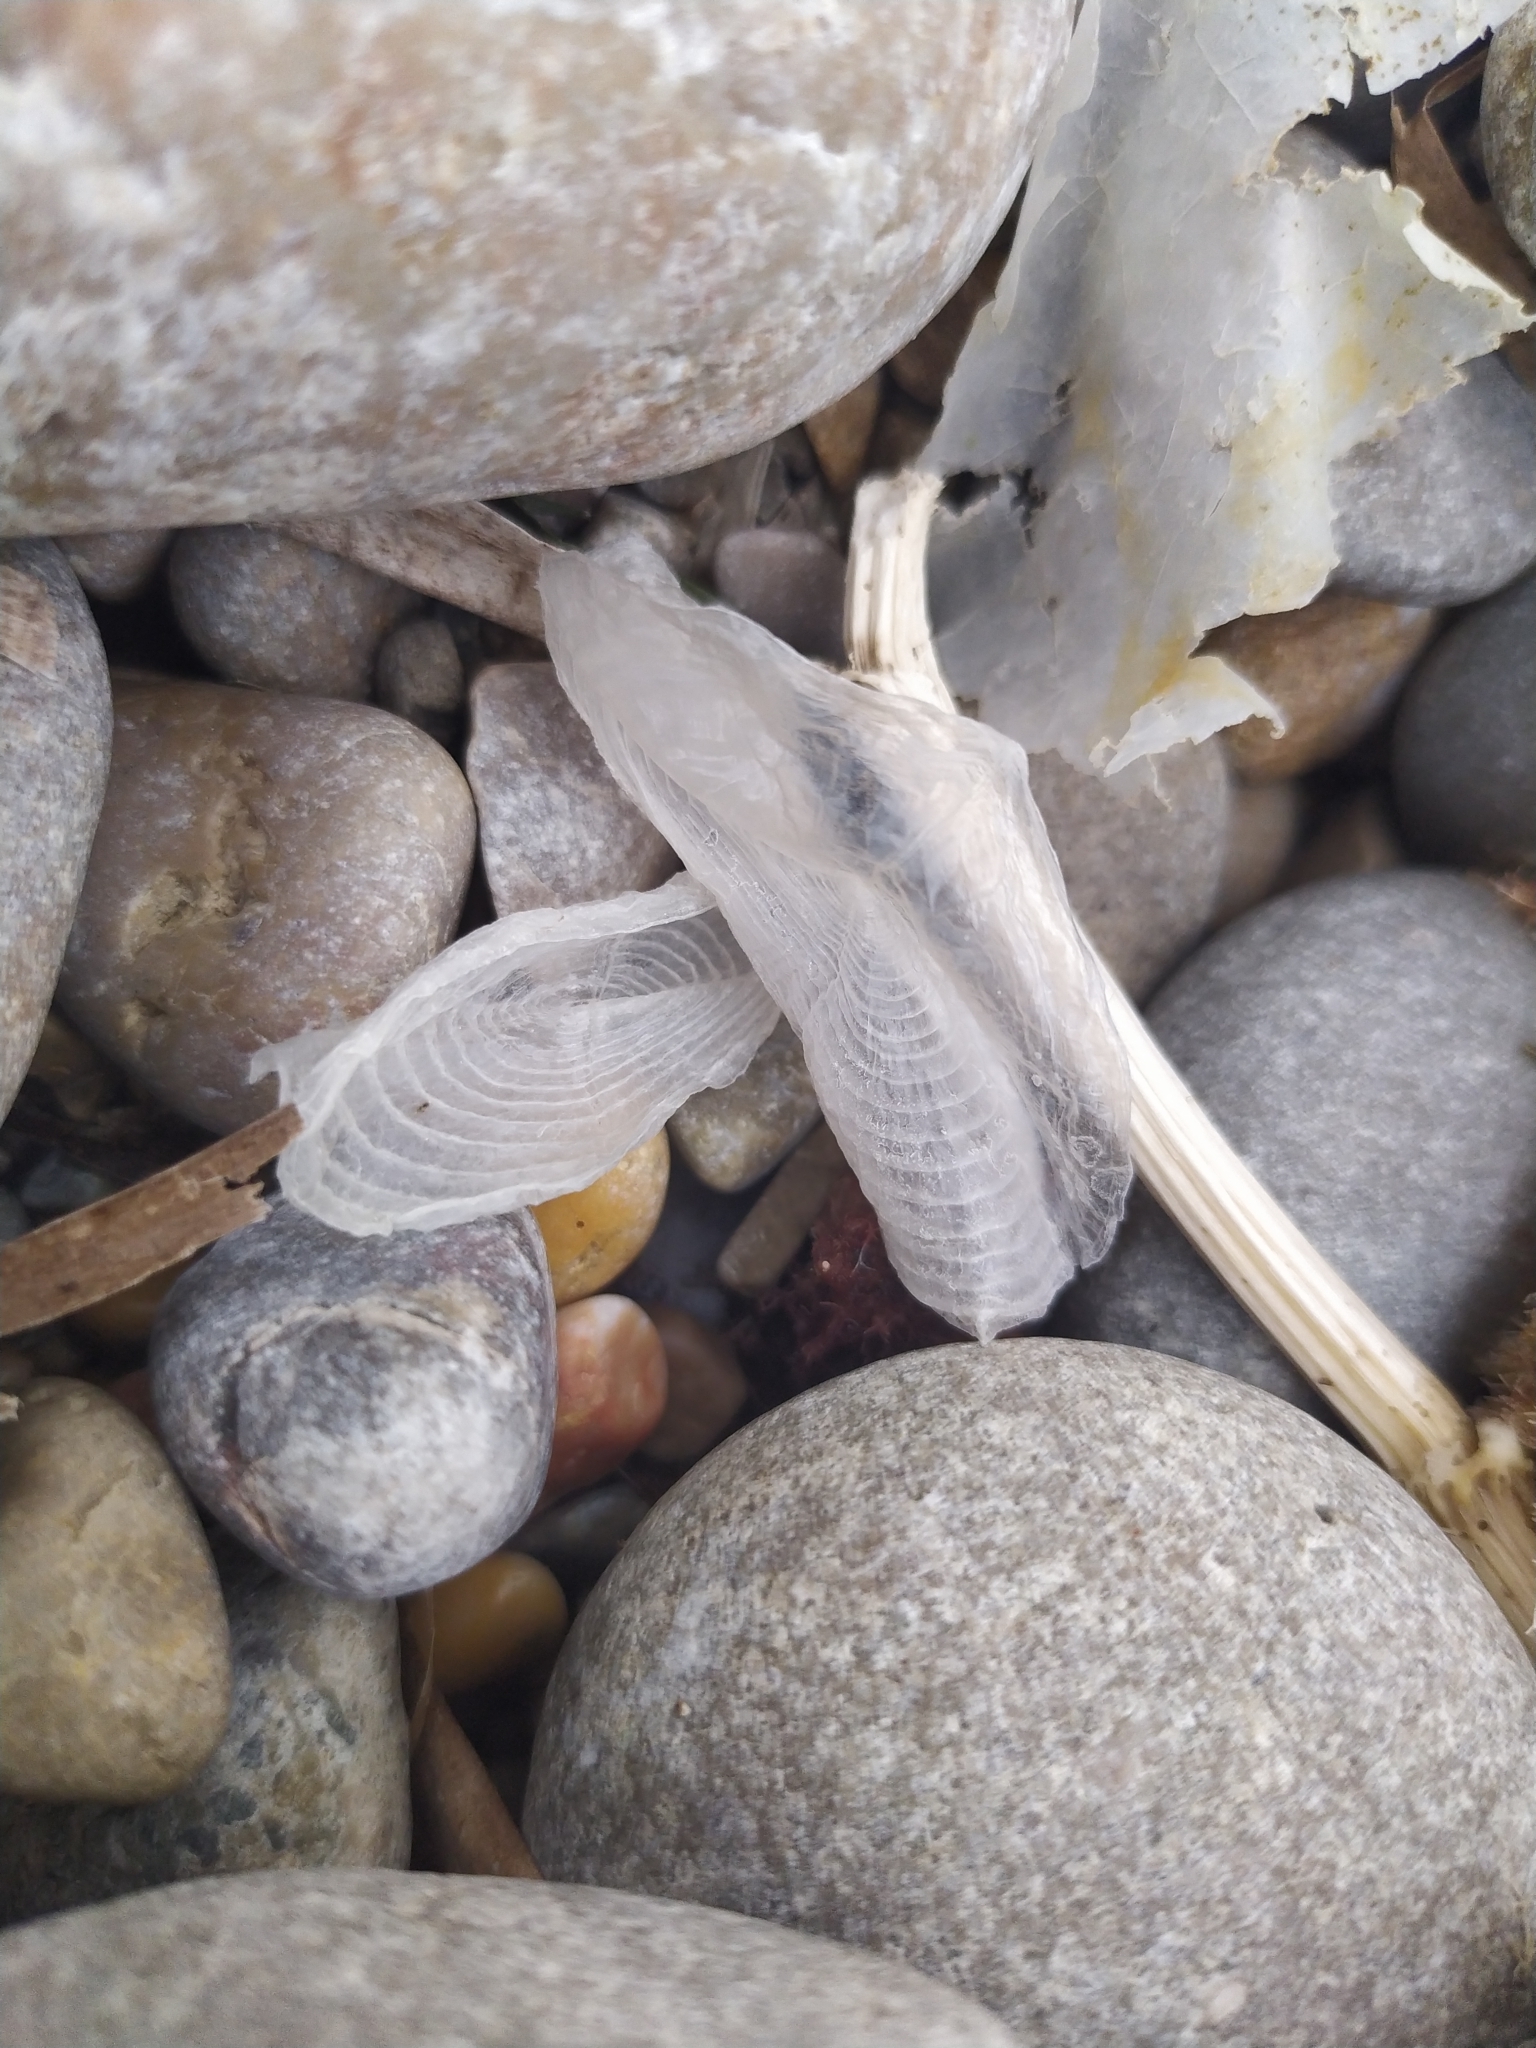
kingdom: Animalia
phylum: Cnidaria
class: Hydrozoa
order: Anthoathecata
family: Porpitidae
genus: Velella
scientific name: Velella velella
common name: By-the-wind-sailor
